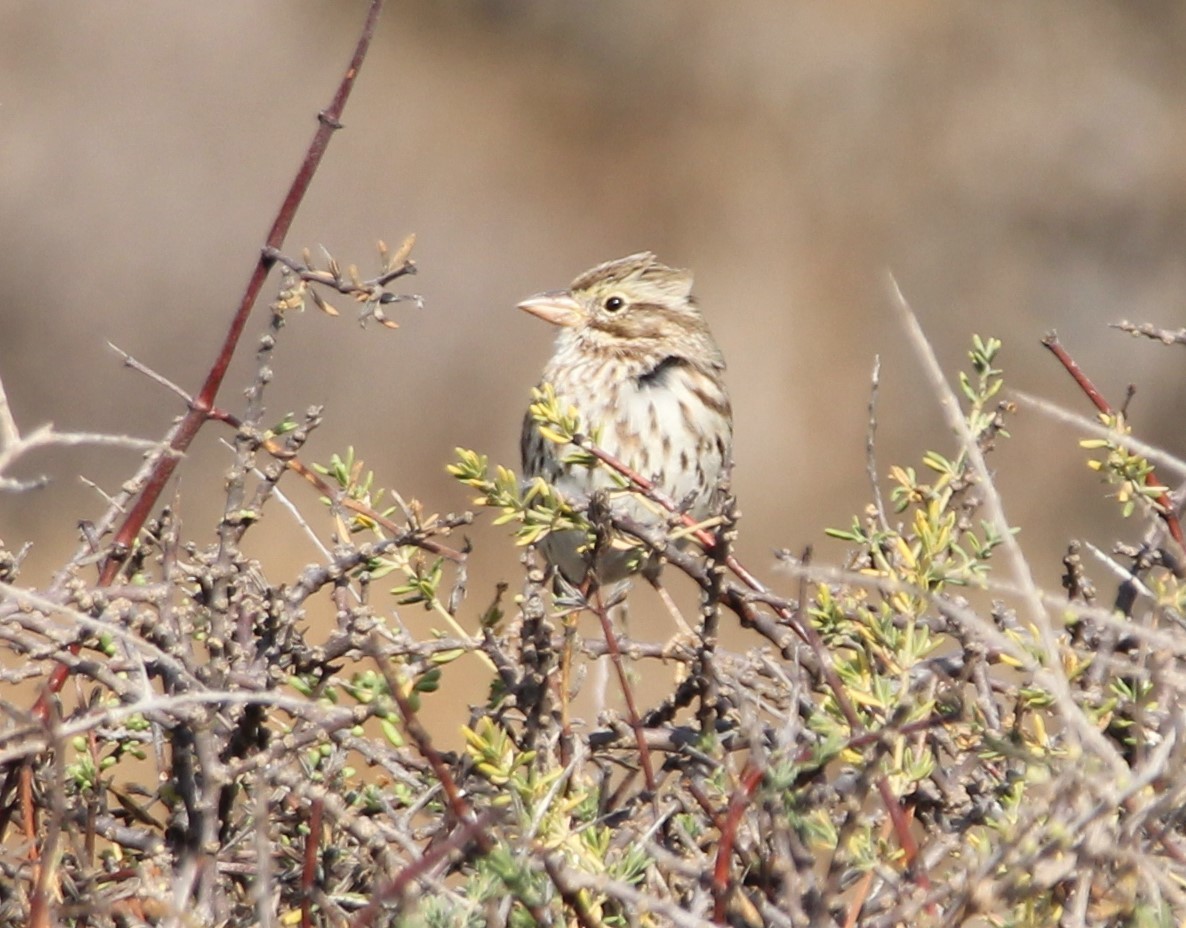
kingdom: Animalia
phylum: Chordata
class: Aves
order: Passeriformes
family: Passerellidae
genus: Passerculus
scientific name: Passerculus sandwichensis
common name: Savannah sparrow
